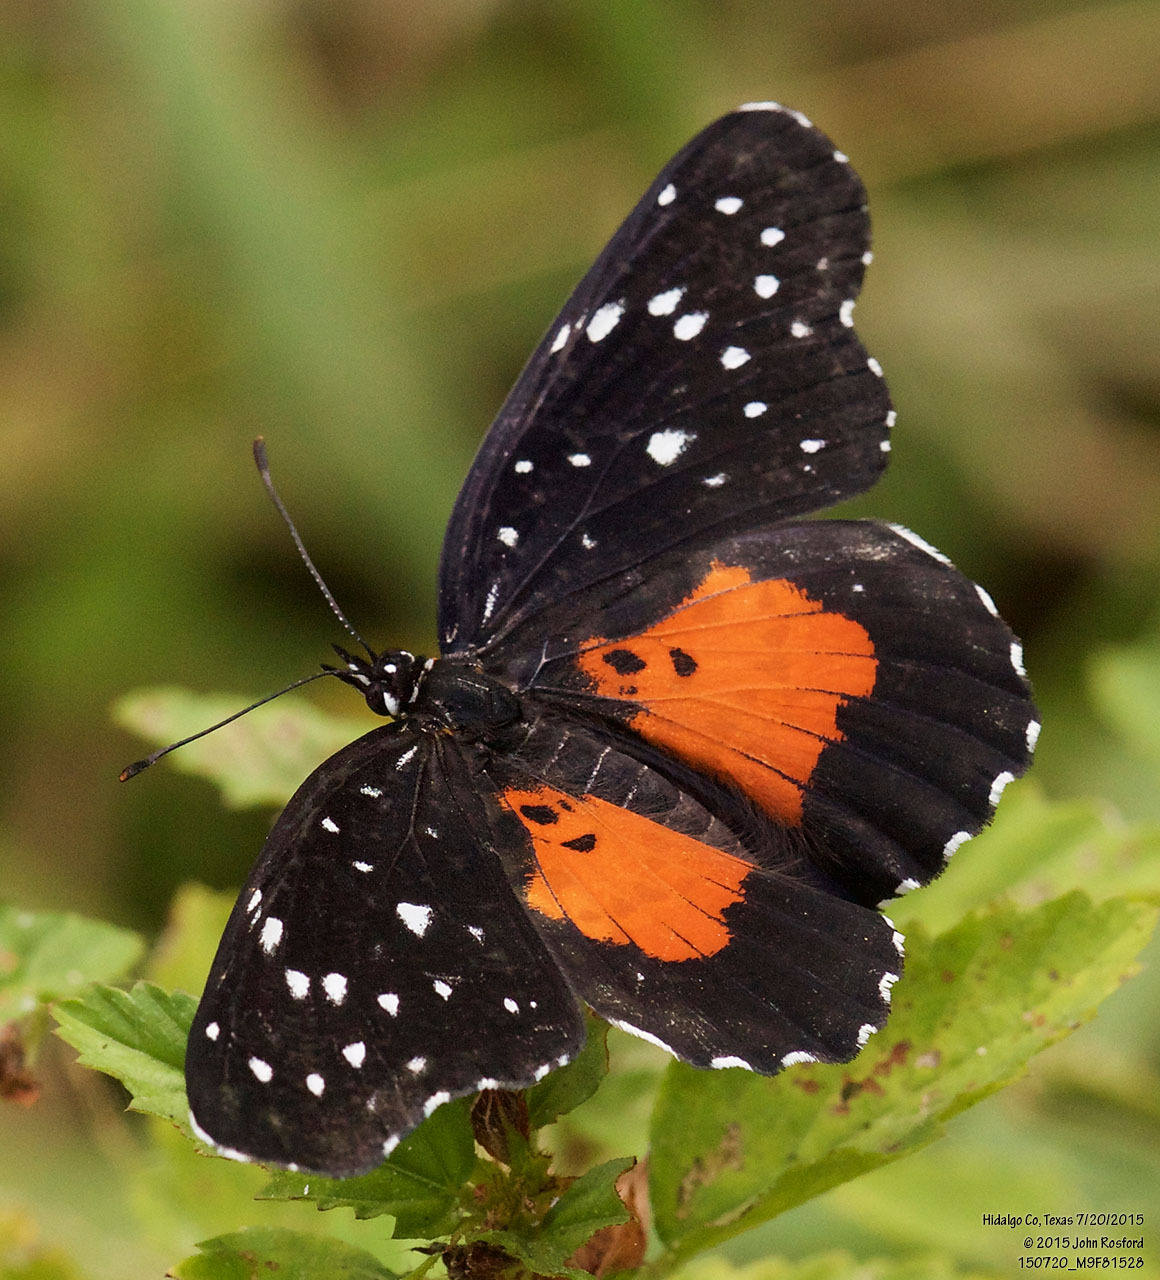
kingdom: Animalia
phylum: Arthropoda
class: Insecta
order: Lepidoptera
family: Nymphalidae
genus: Chlosyne
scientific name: Chlosyne janais
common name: Crimson patch
